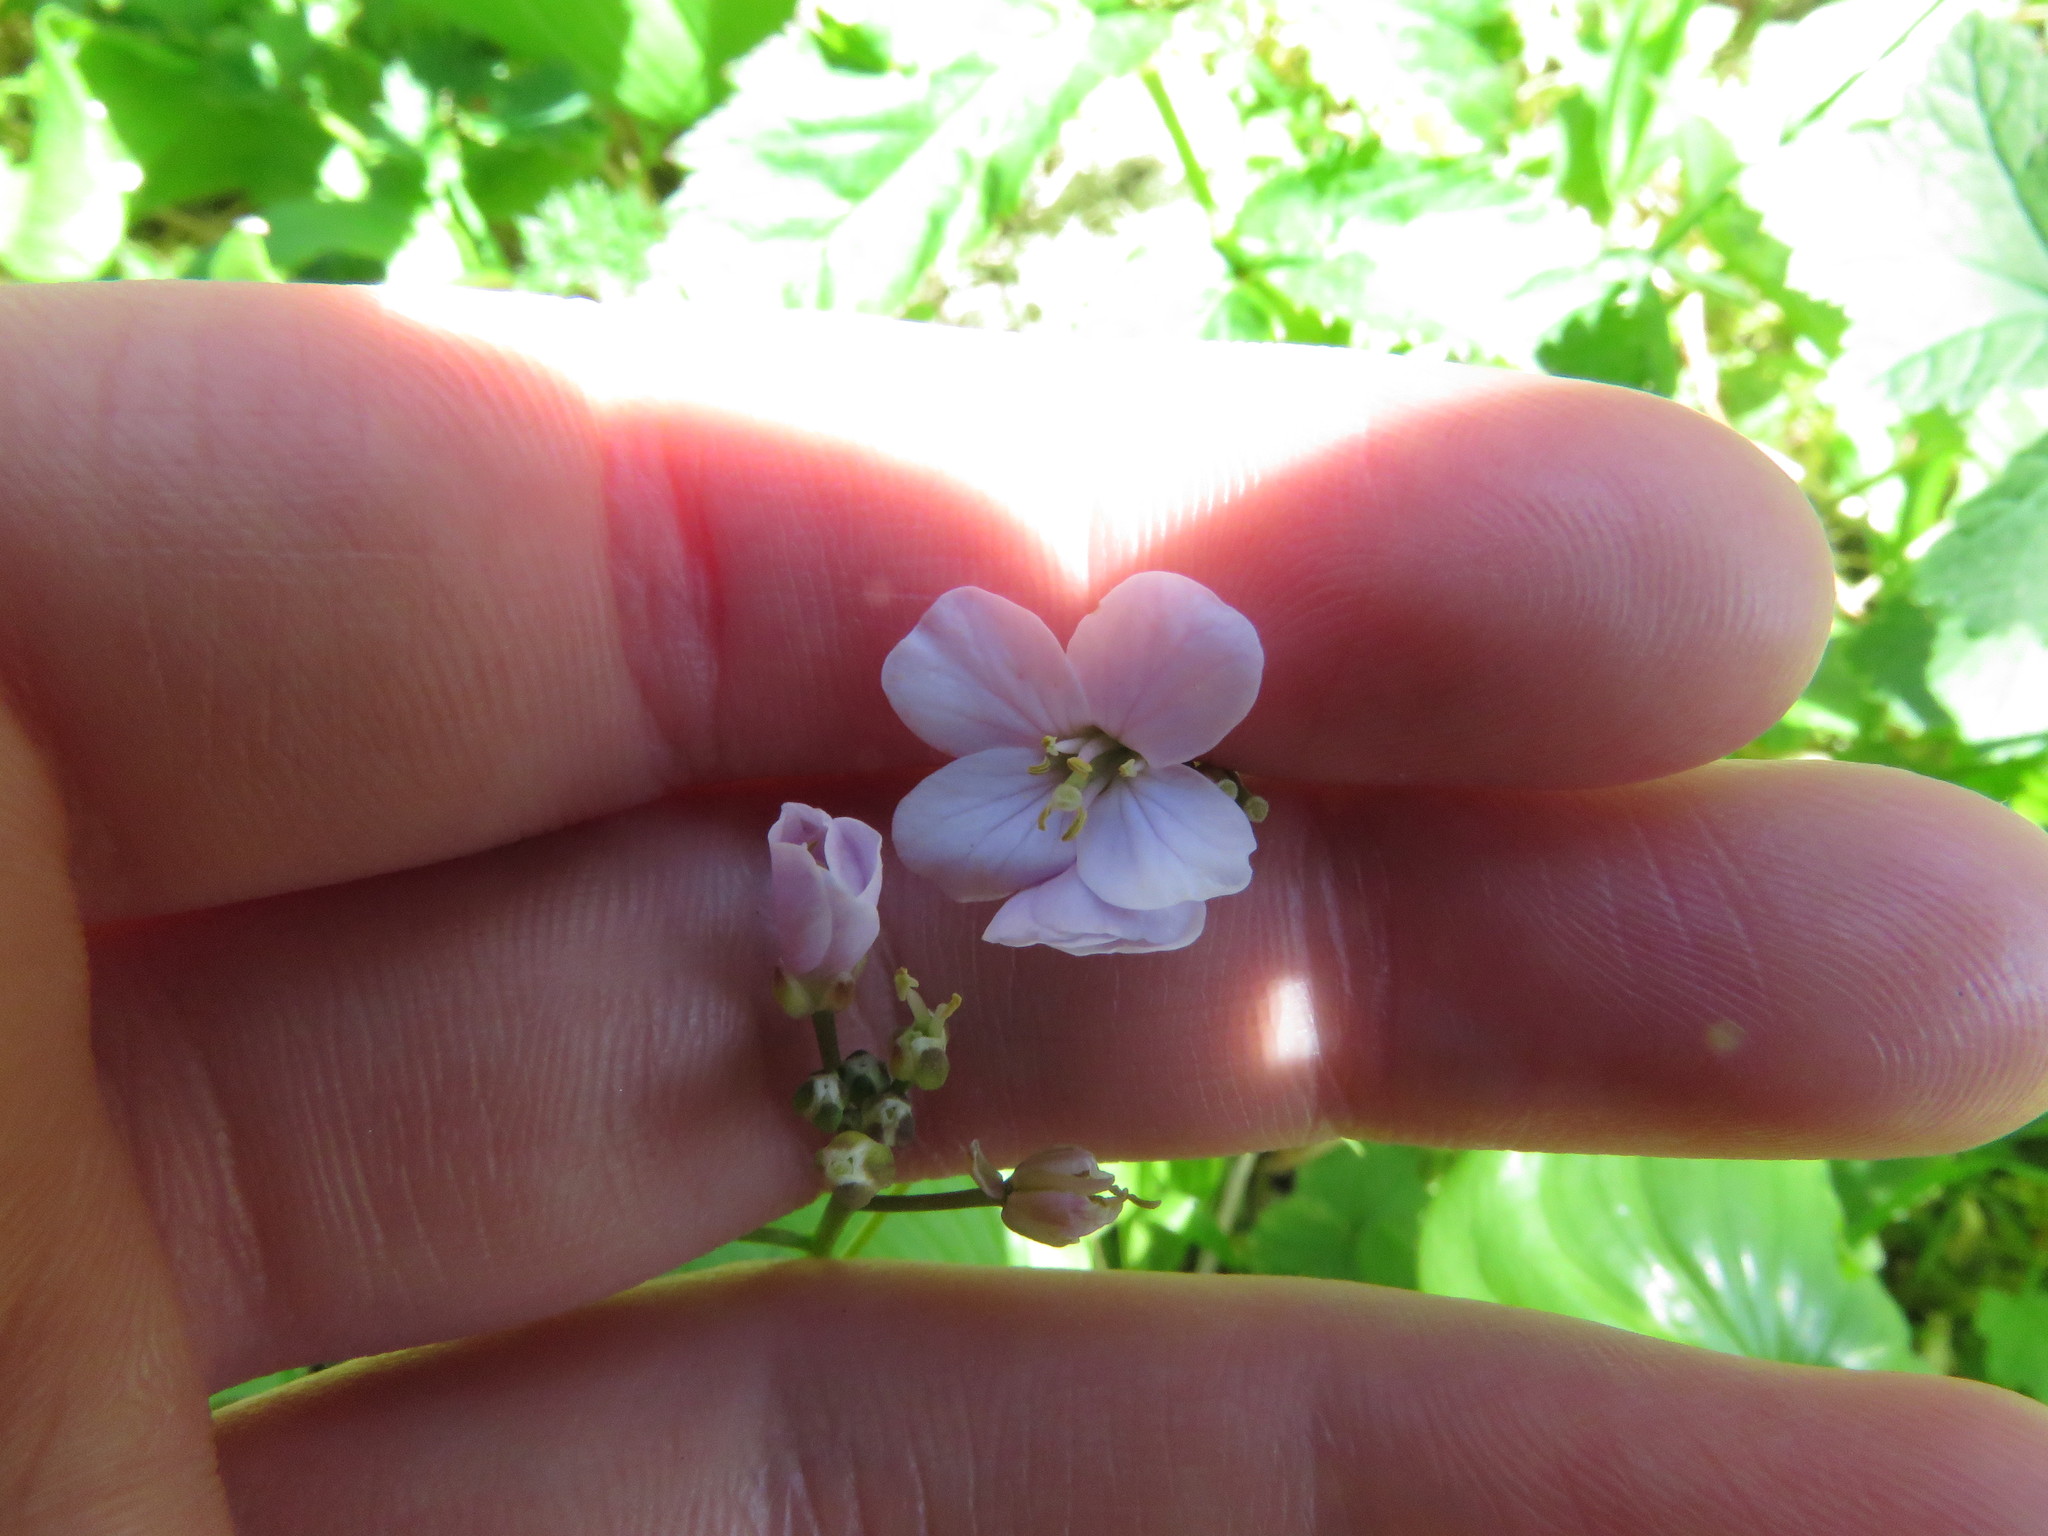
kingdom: Plantae
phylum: Tracheophyta
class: Magnoliopsida
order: Caryophyllales
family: Montiaceae
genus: Claytonia
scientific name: Claytonia sibirica
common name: Pink purslane
